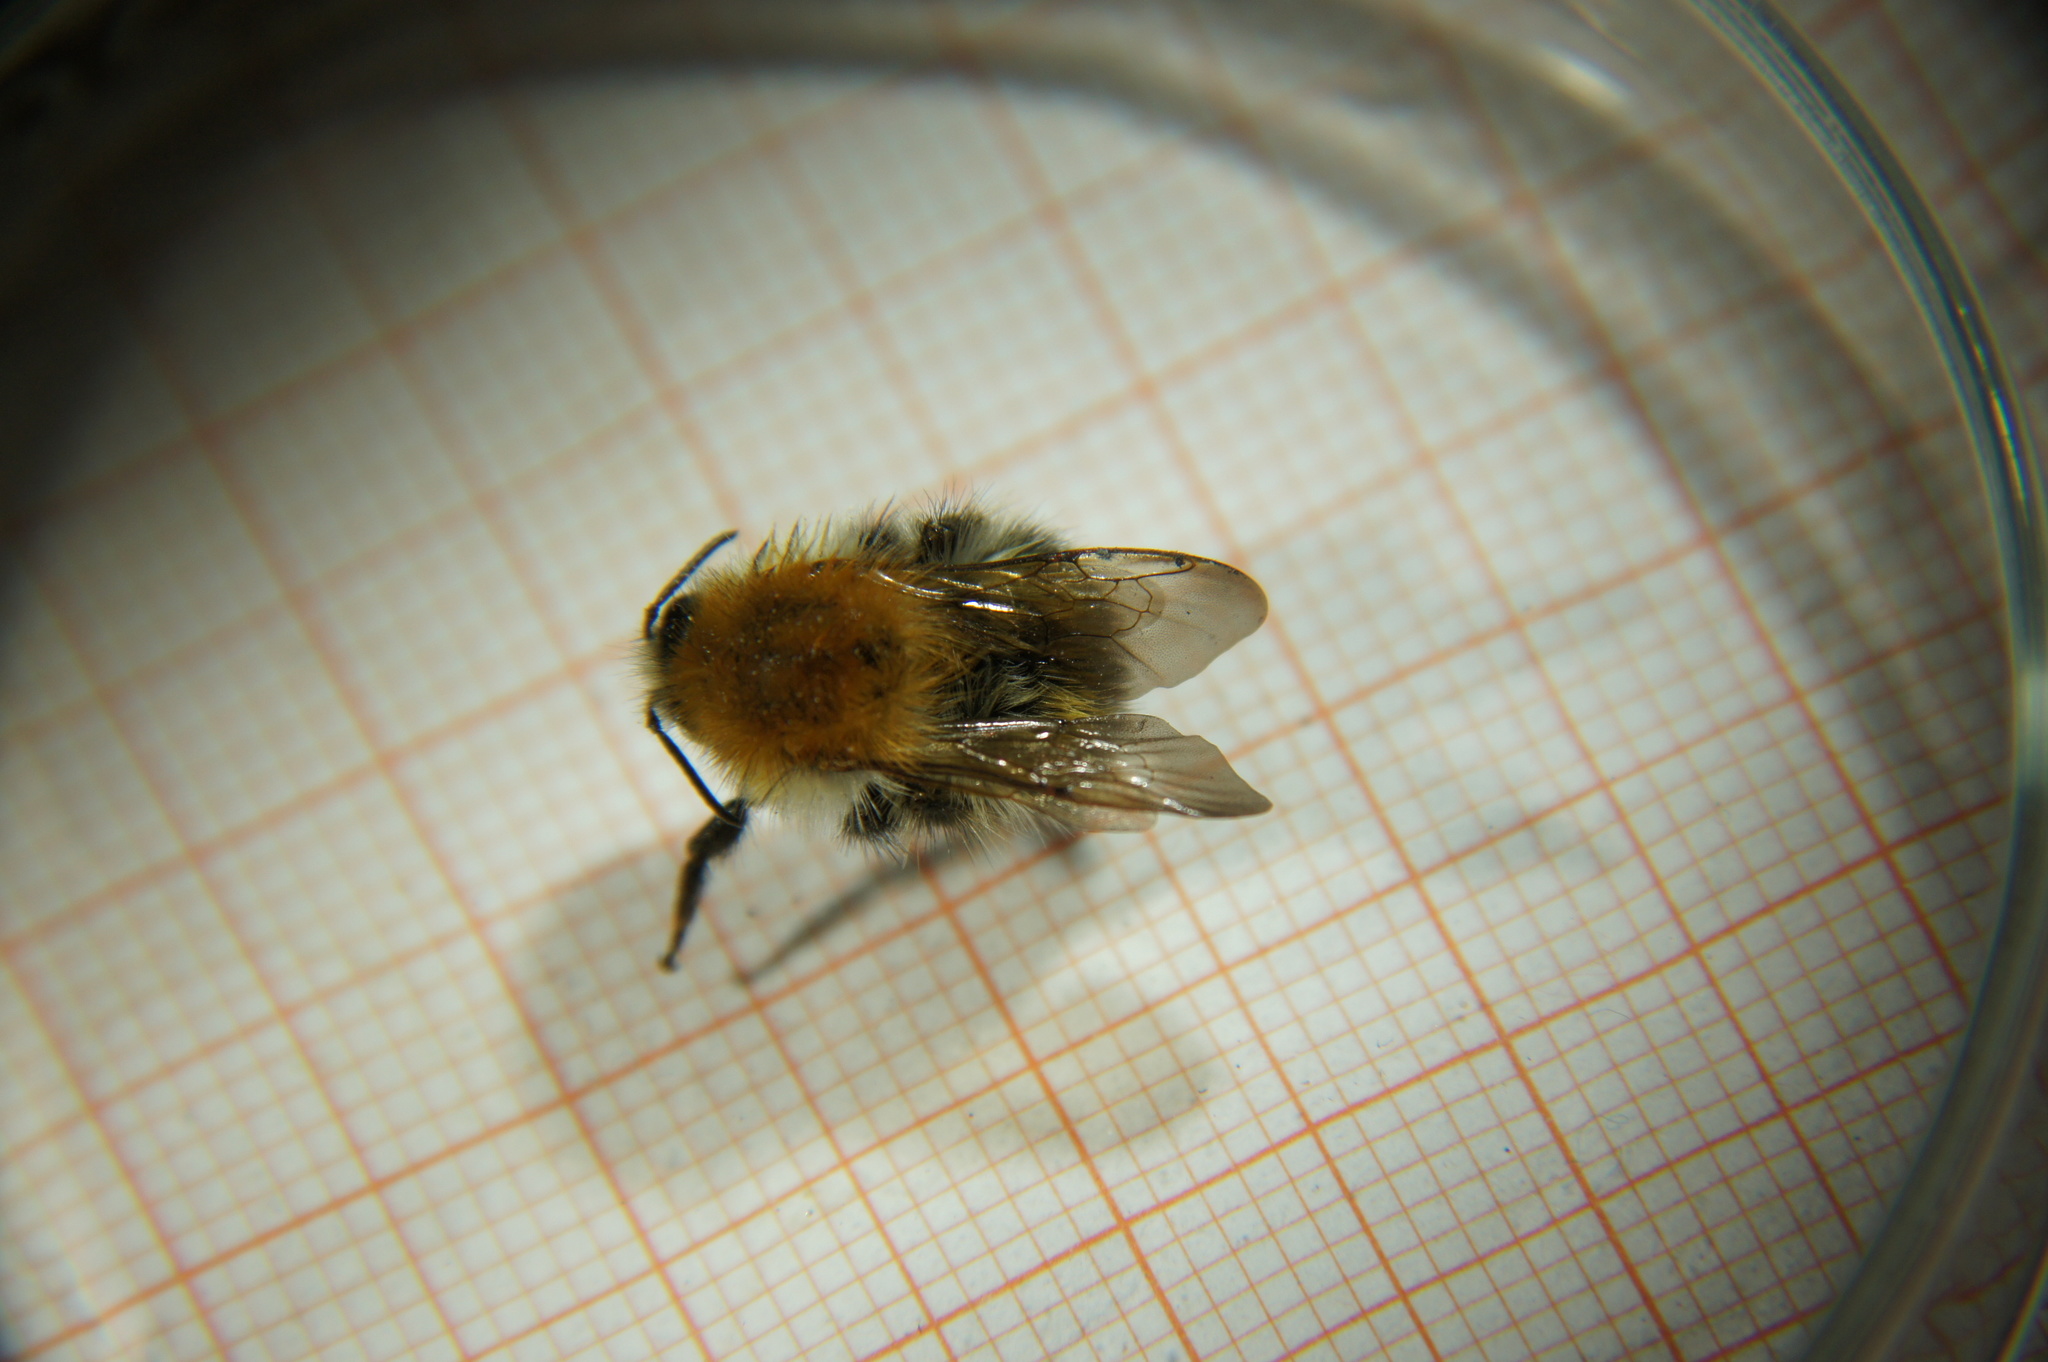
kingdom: Animalia
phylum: Arthropoda
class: Insecta
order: Hymenoptera
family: Apidae
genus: Bombus
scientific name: Bombus pascuorum
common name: Common carder bee
